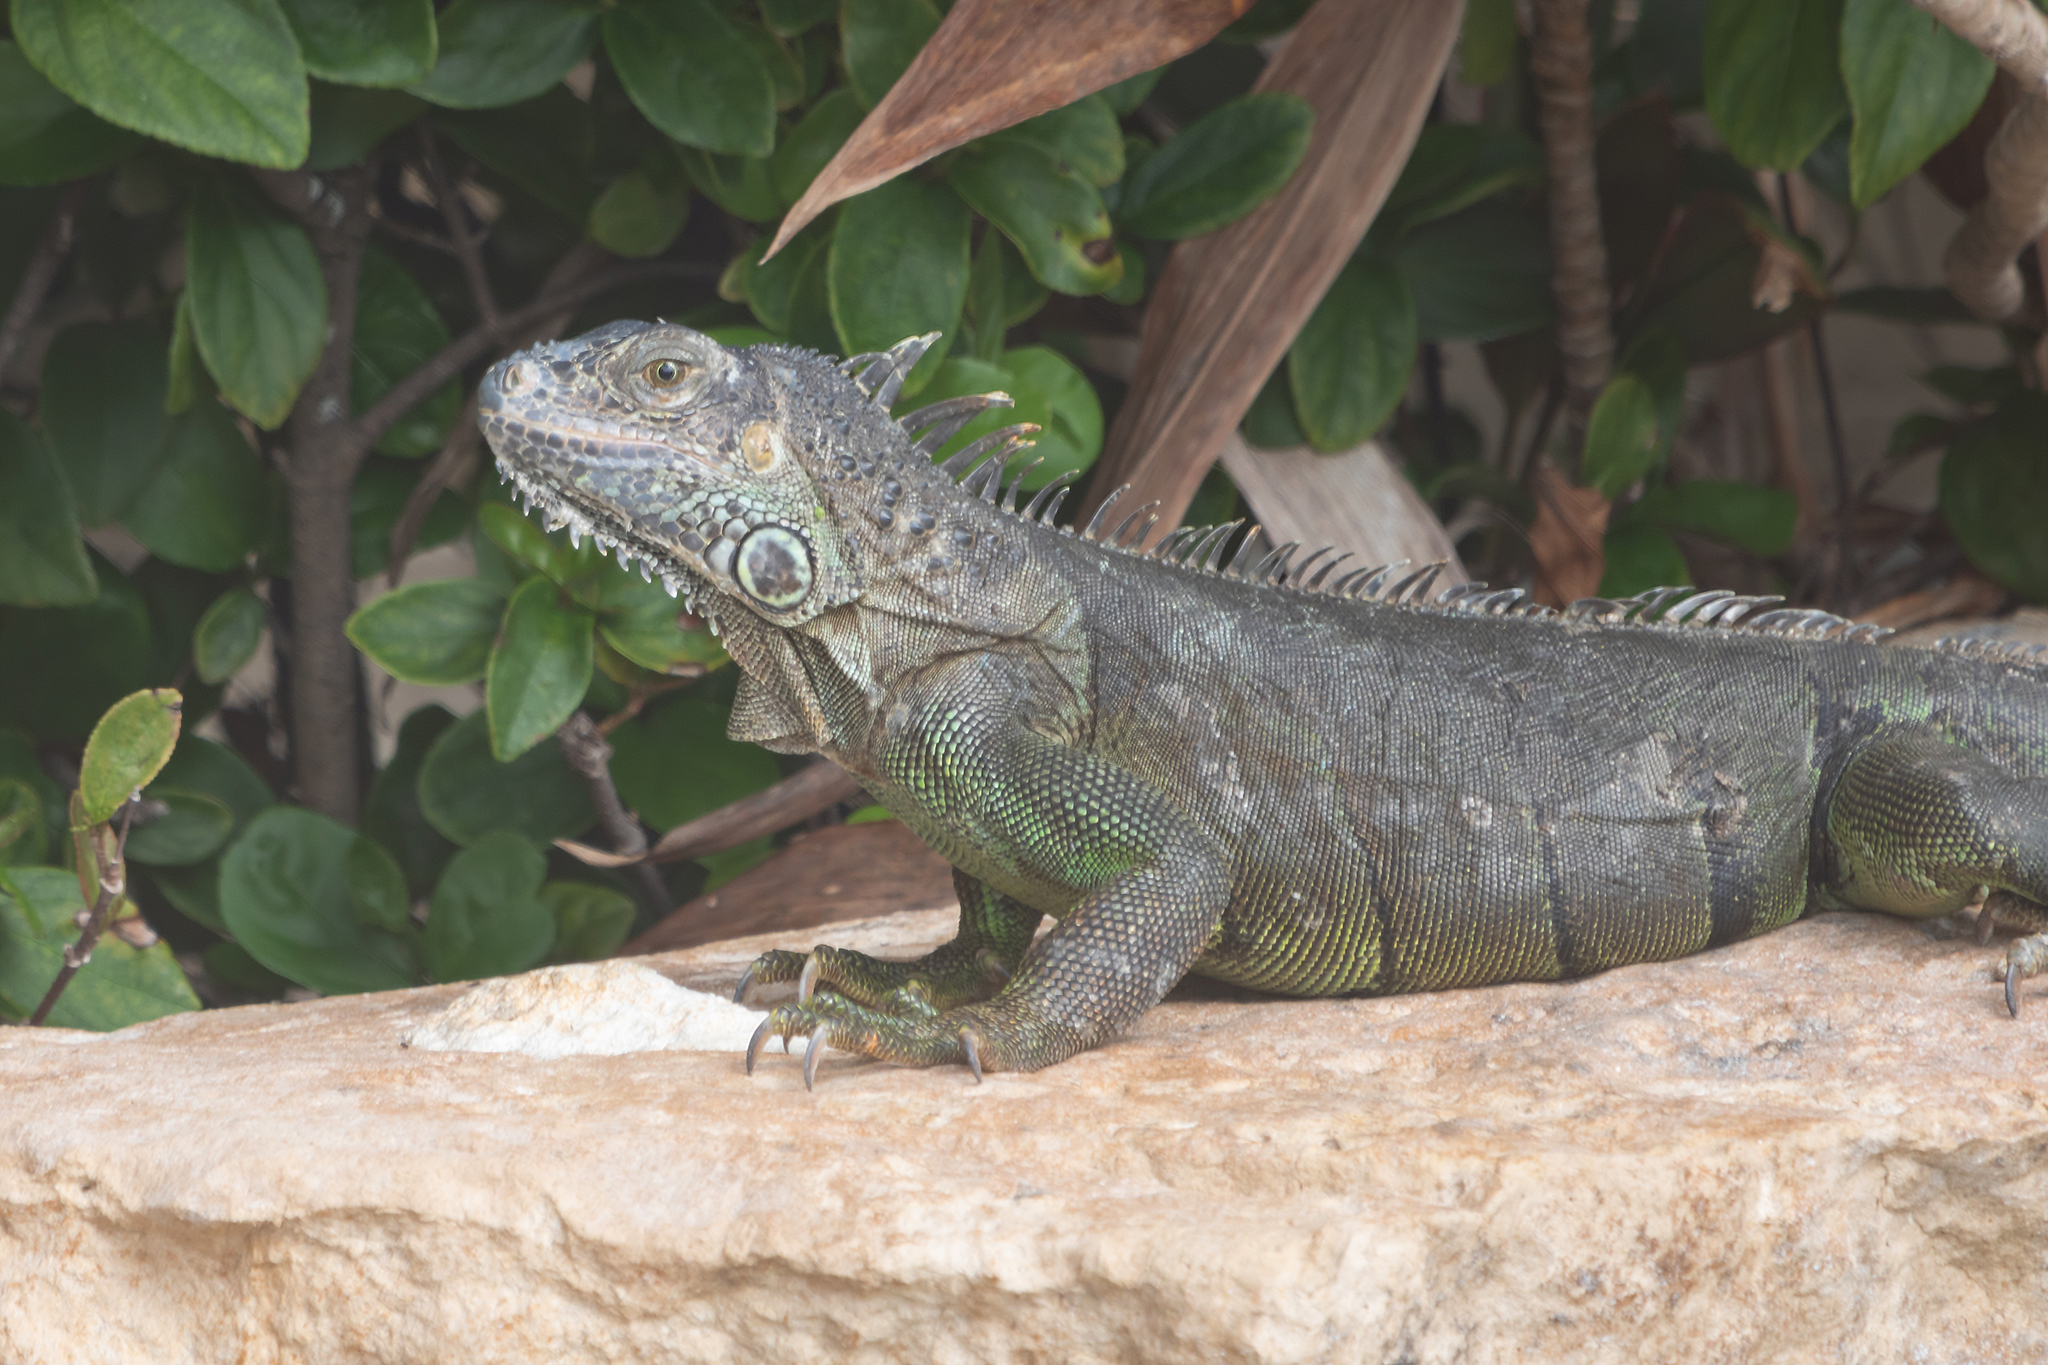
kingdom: Animalia
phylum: Chordata
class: Squamata
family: Iguanidae
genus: Iguana
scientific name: Iguana iguana
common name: Green iguana
